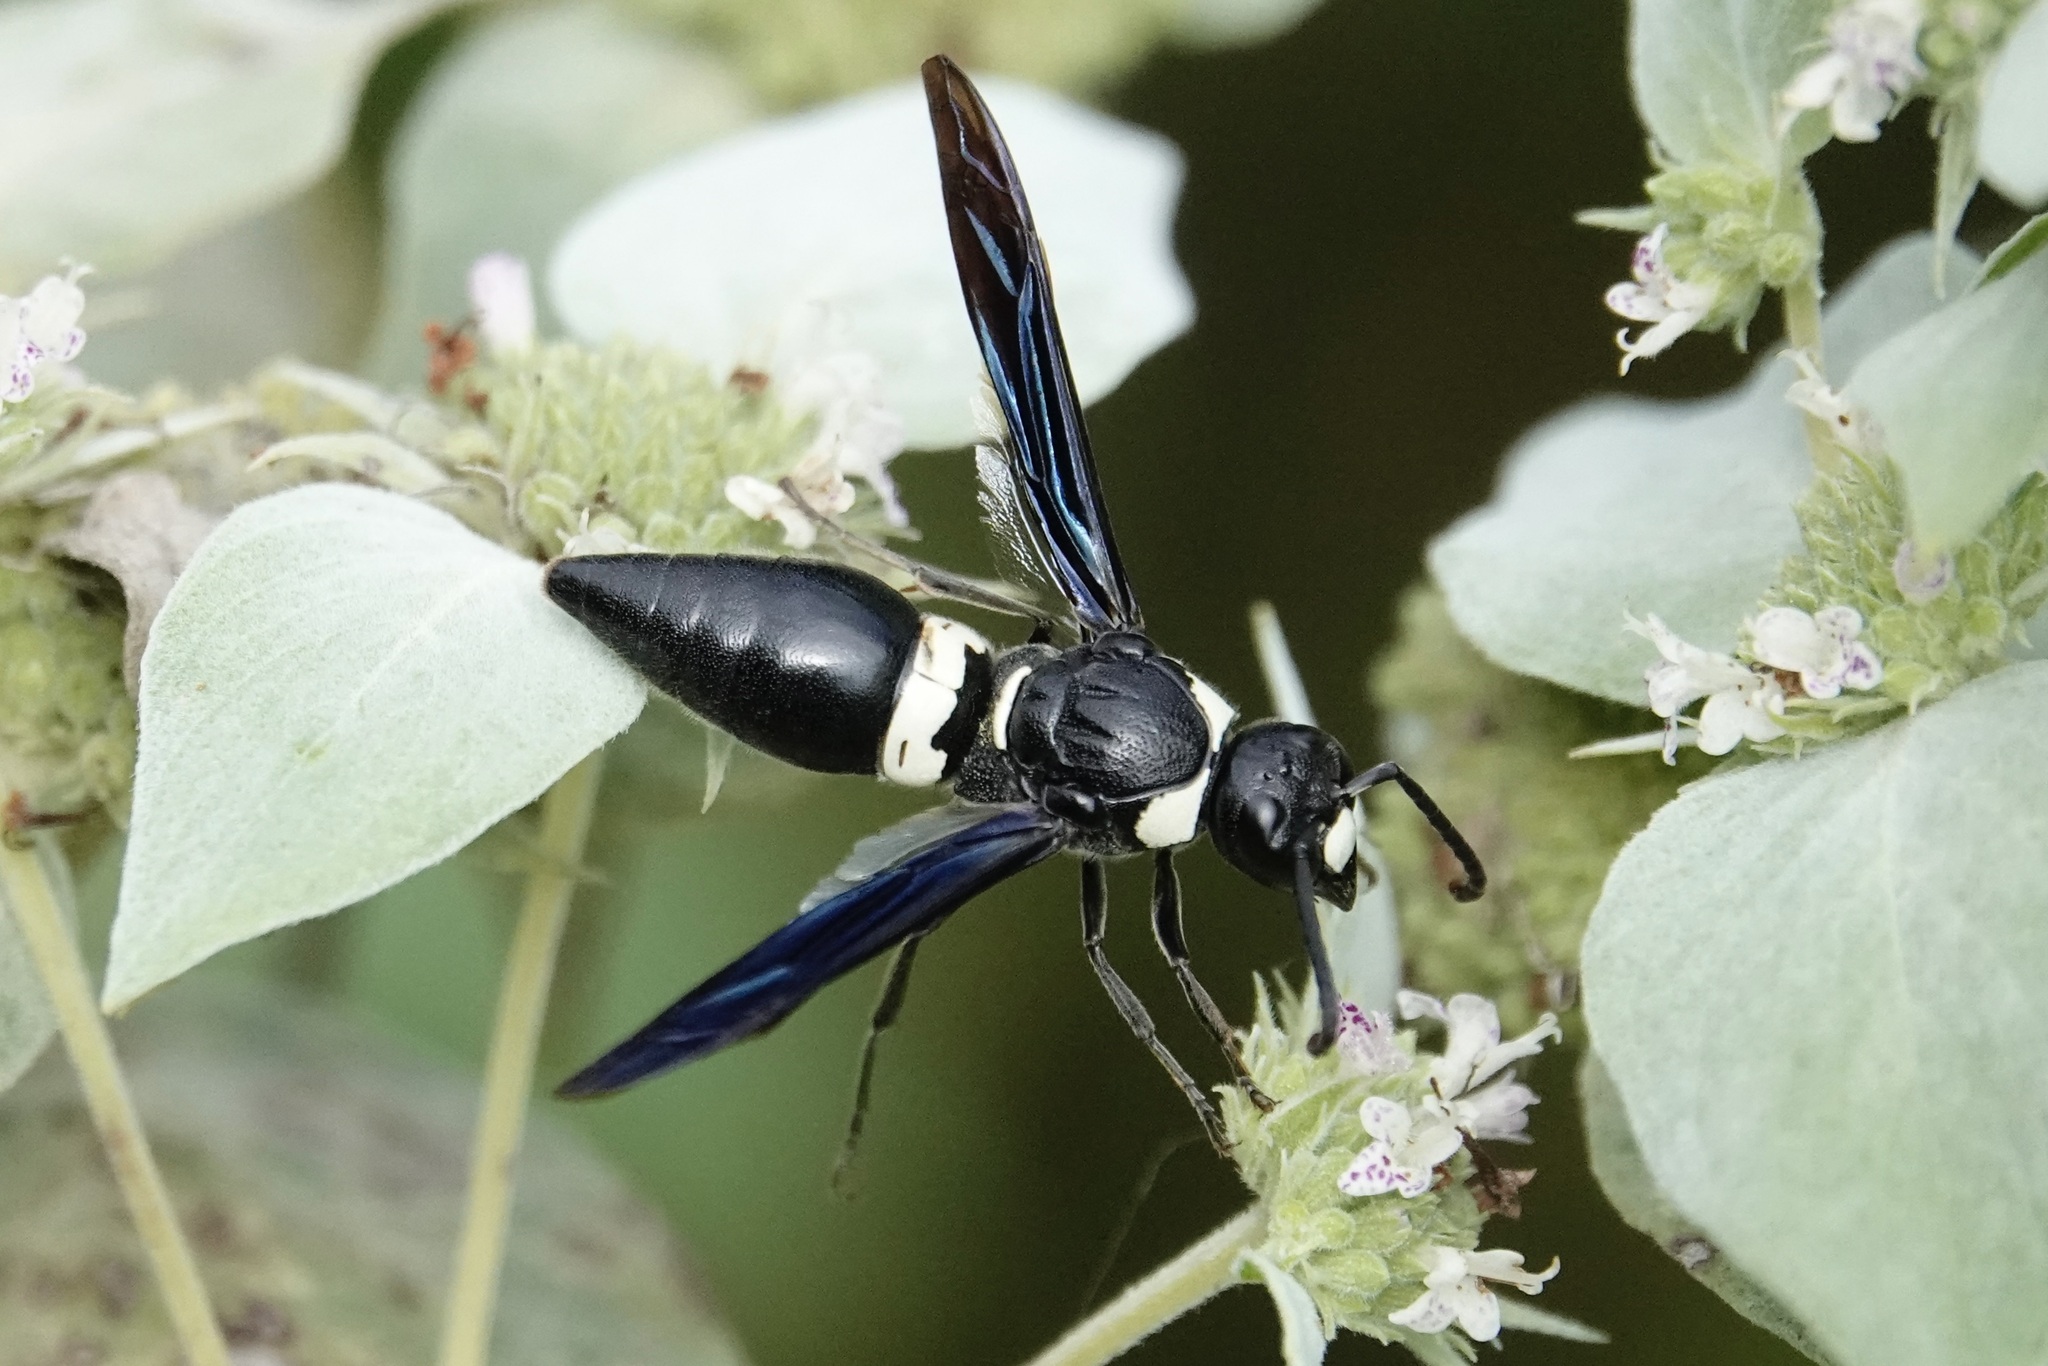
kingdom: Animalia
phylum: Arthropoda
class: Insecta
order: Hymenoptera
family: Eumenidae
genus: Monobia
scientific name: Monobia quadridens
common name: Four-toothed mason wasp
